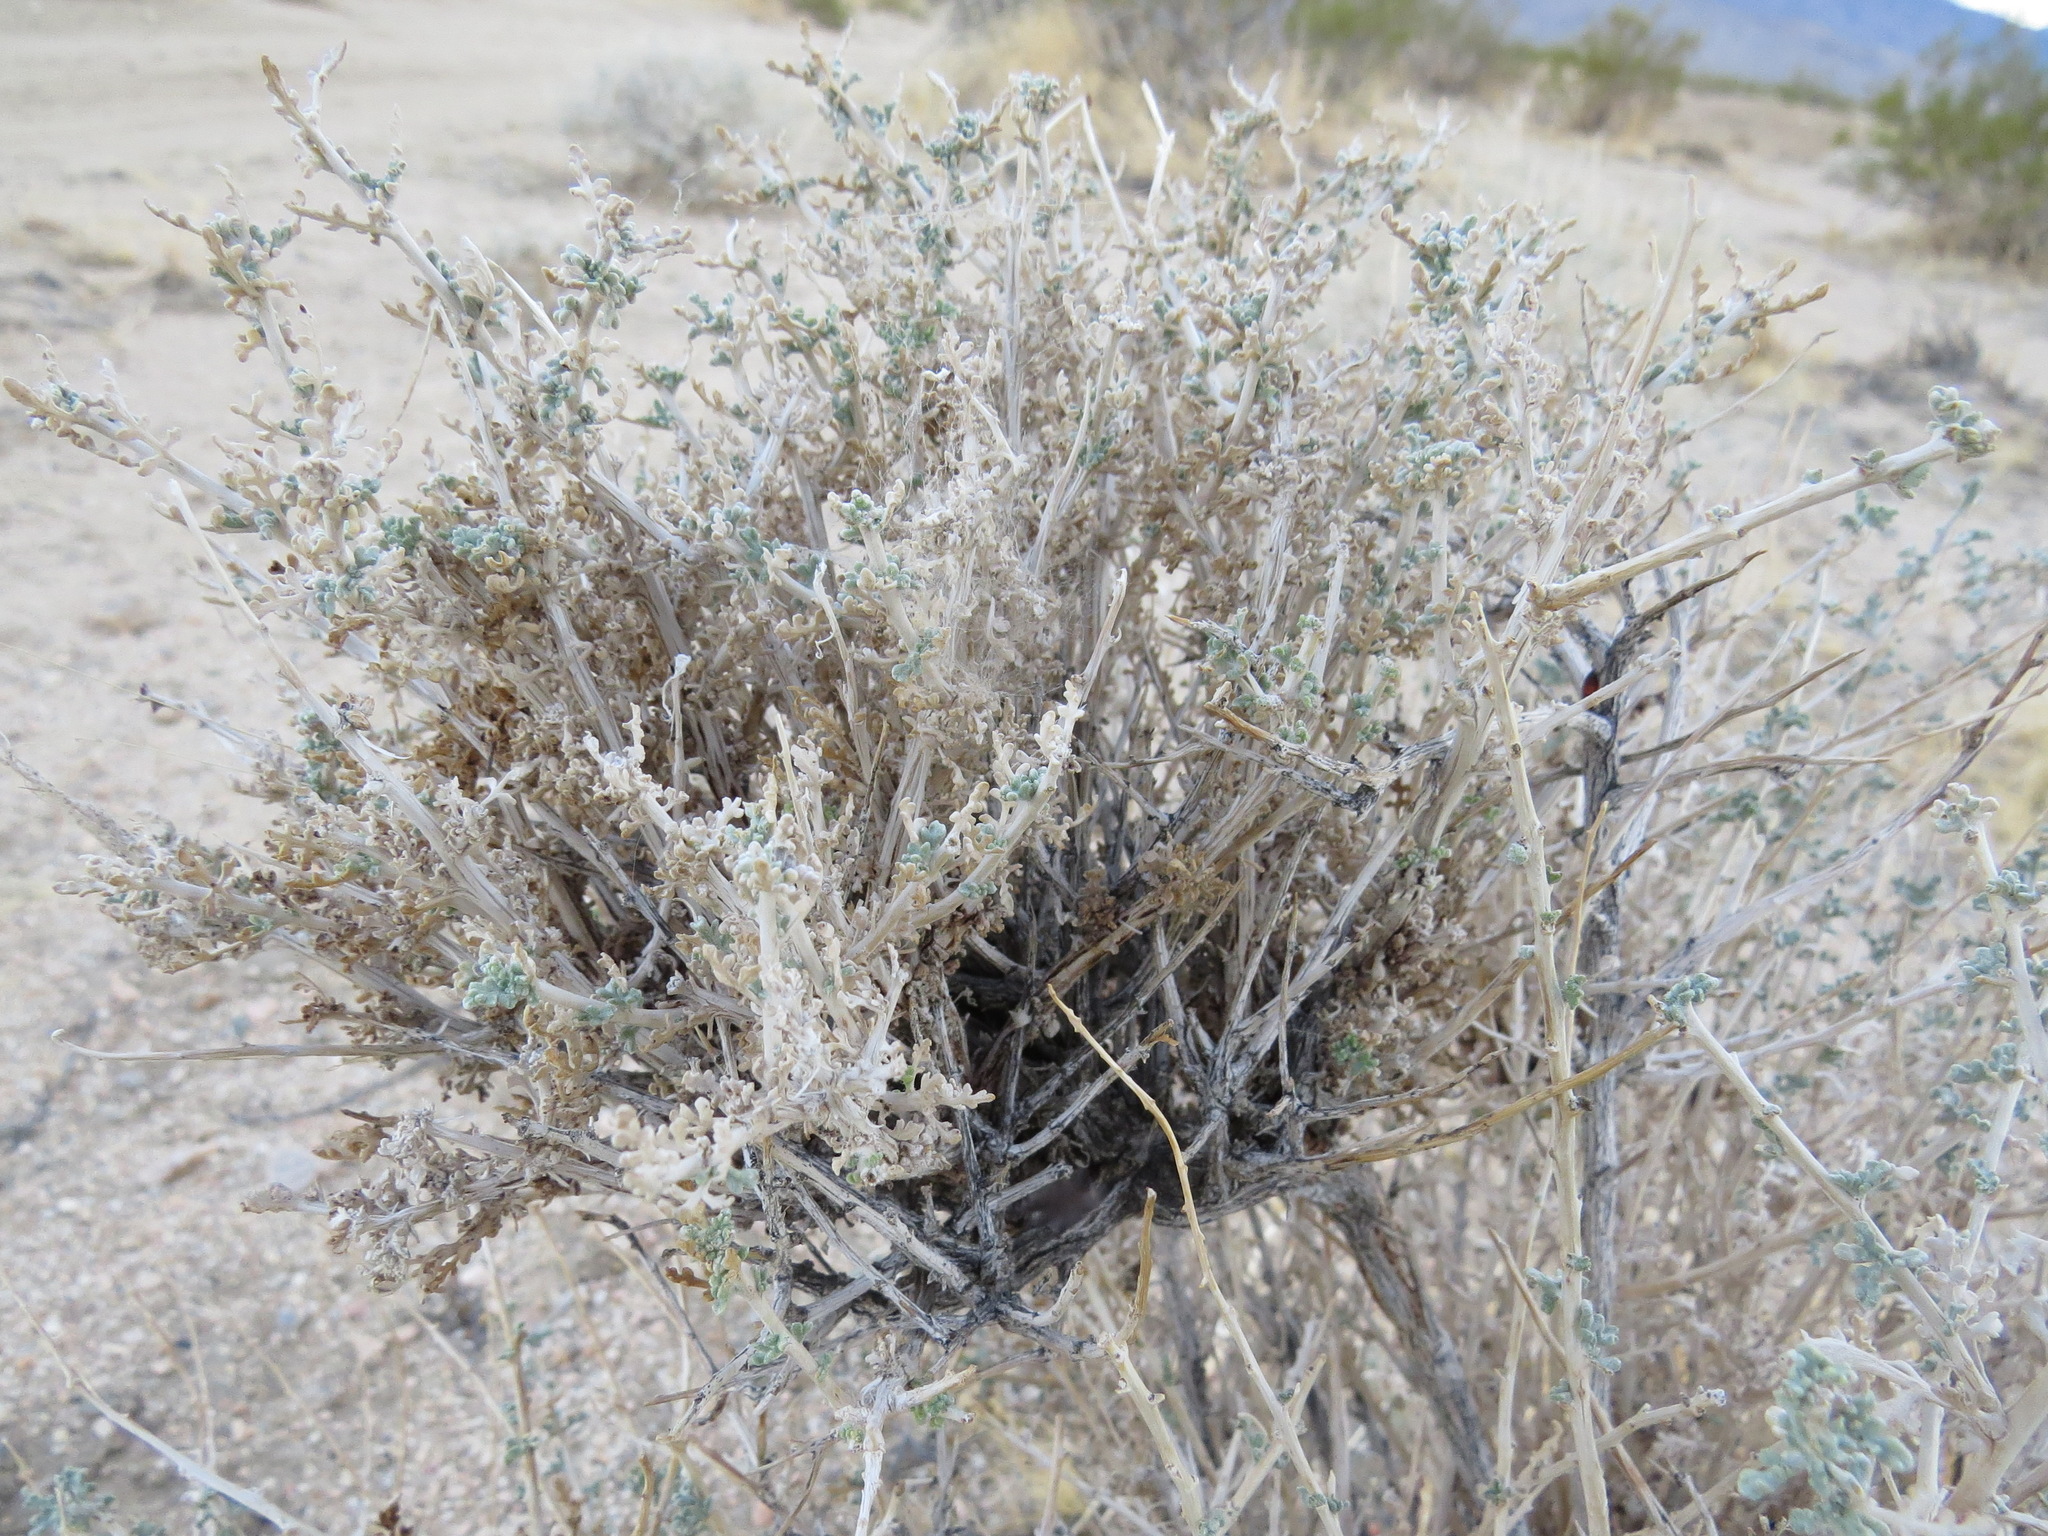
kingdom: Plantae
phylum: Tracheophyta
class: Magnoliopsida
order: Asterales
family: Asteraceae
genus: Ambrosia
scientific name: Ambrosia dumosa
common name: Bur-sage
